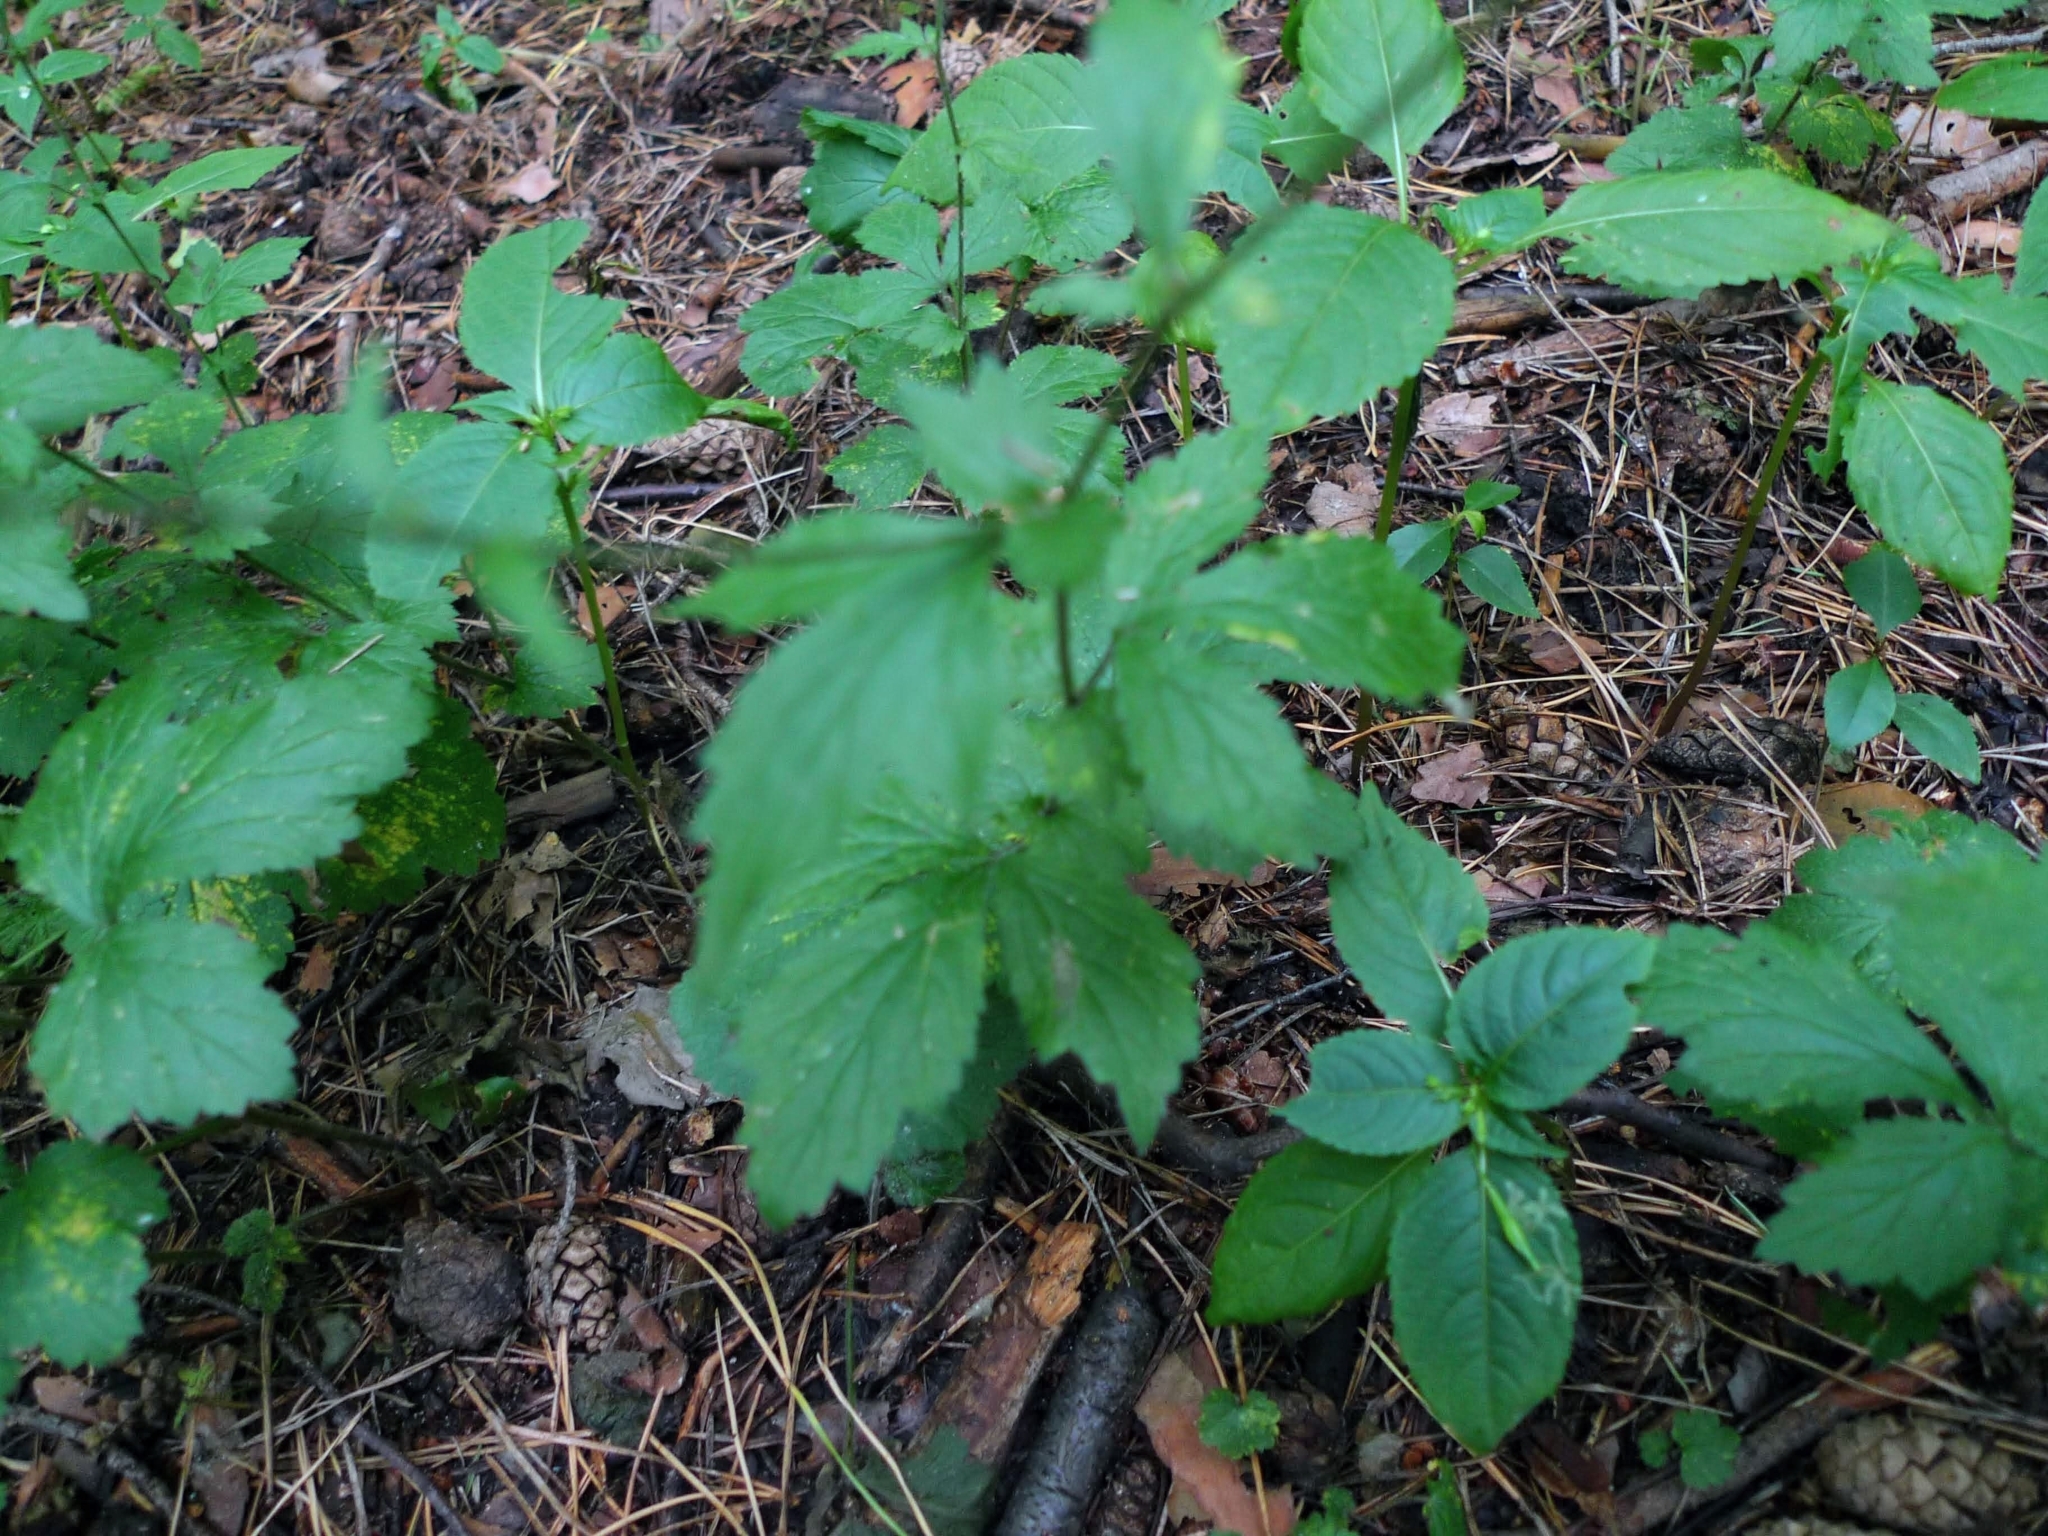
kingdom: Plantae
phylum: Tracheophyta
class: Magnoliopsida
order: Rosales
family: Rosaceae
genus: Geum
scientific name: Geum urbanum
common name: Wood avens
